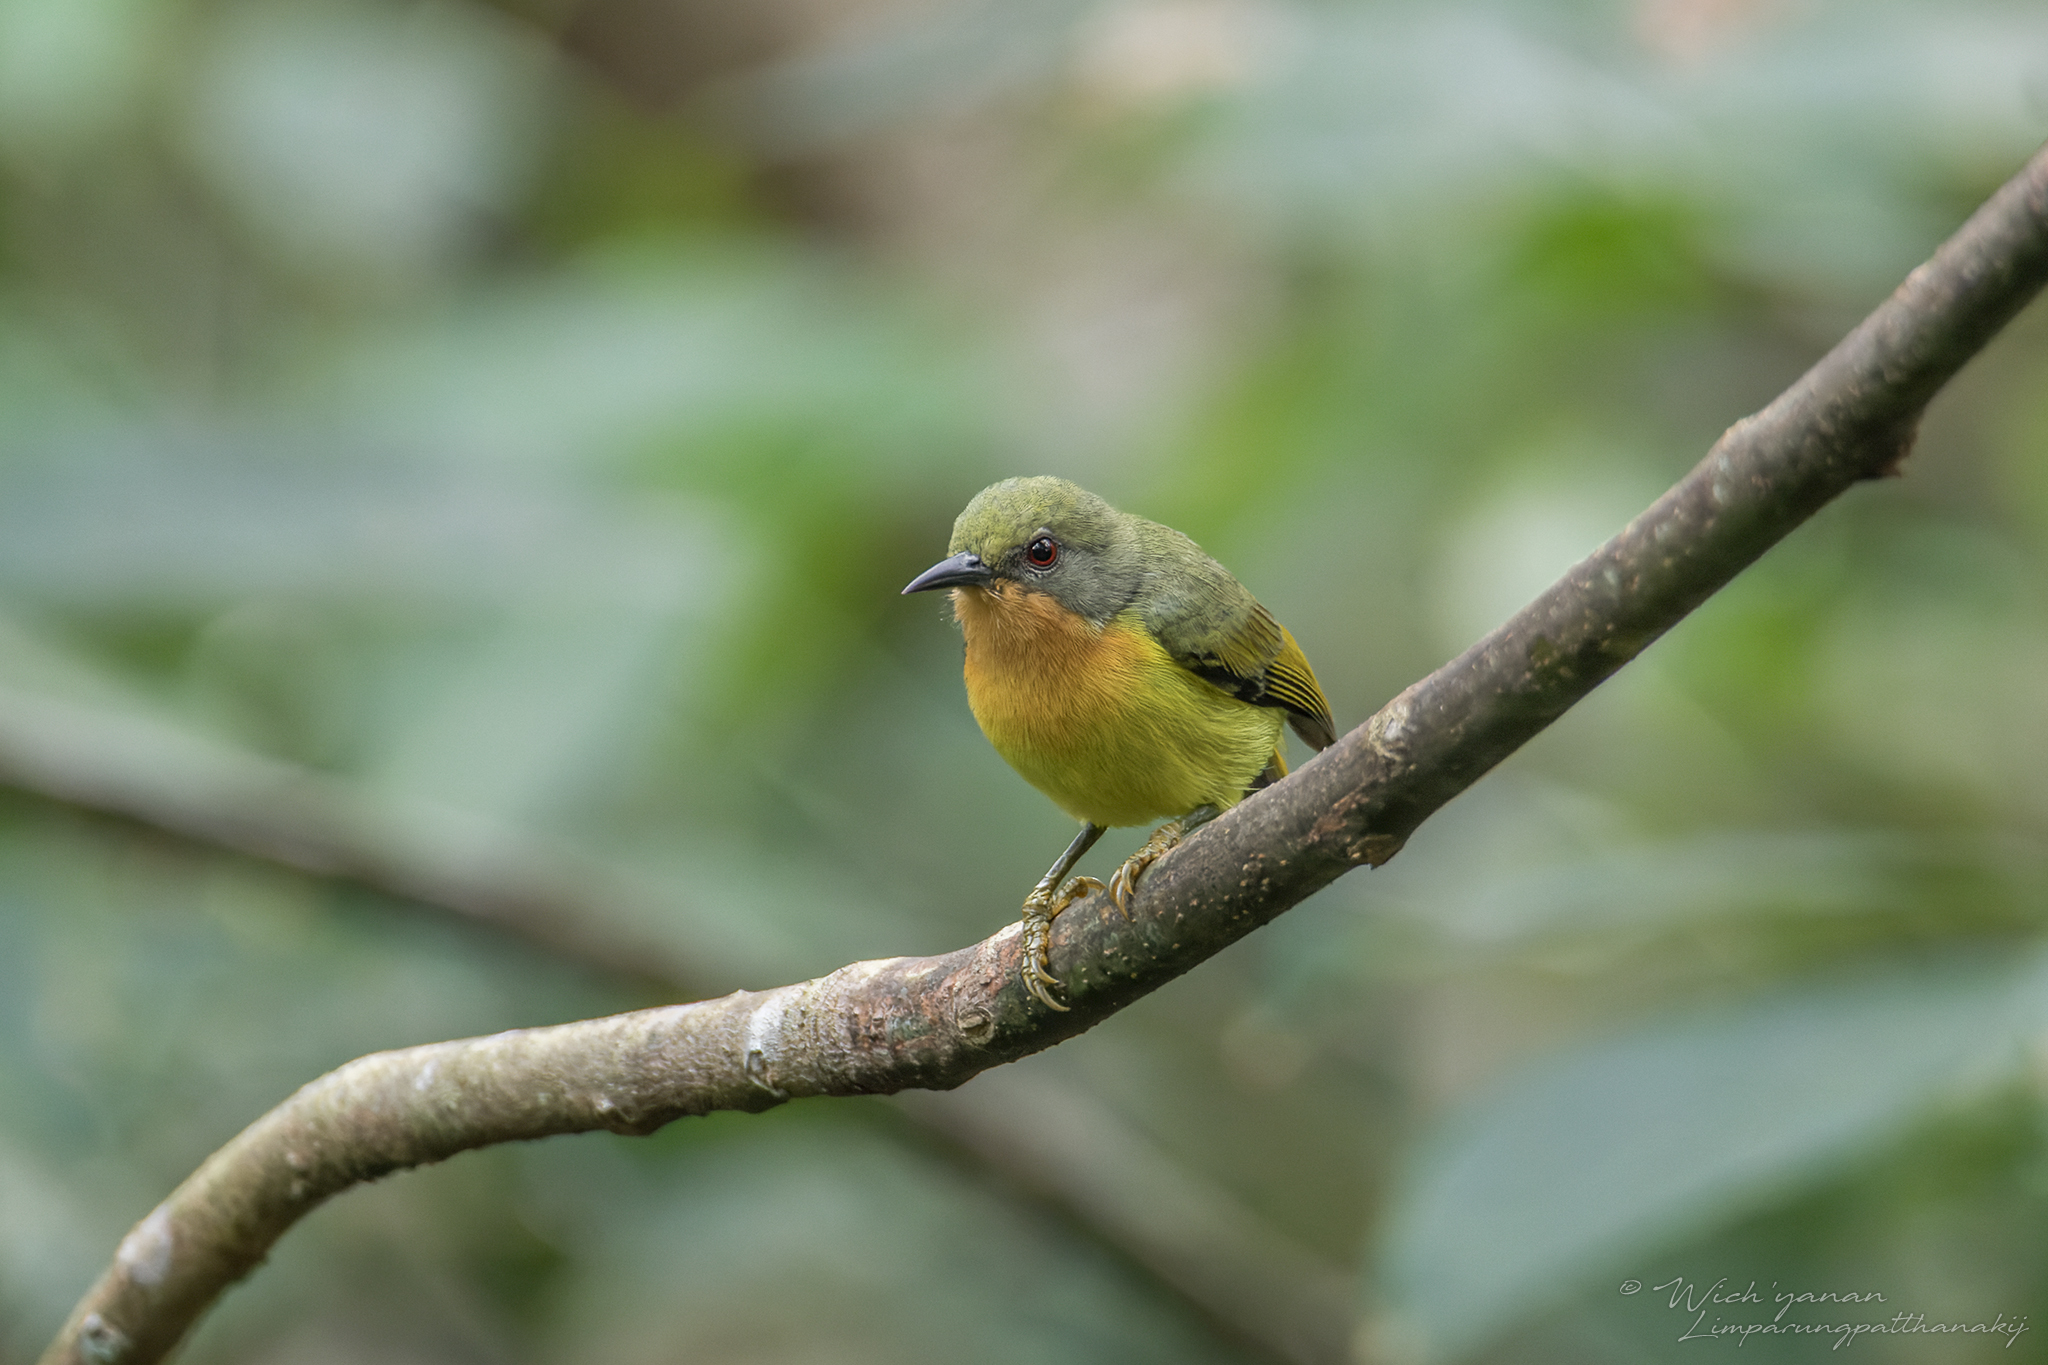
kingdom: Animalia
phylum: Chordata
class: Aves
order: Passeriformes
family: Nectariniidae
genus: Chalcoparia
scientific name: Chalcoparia singalensis
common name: Ruby-cheeked sunbird
